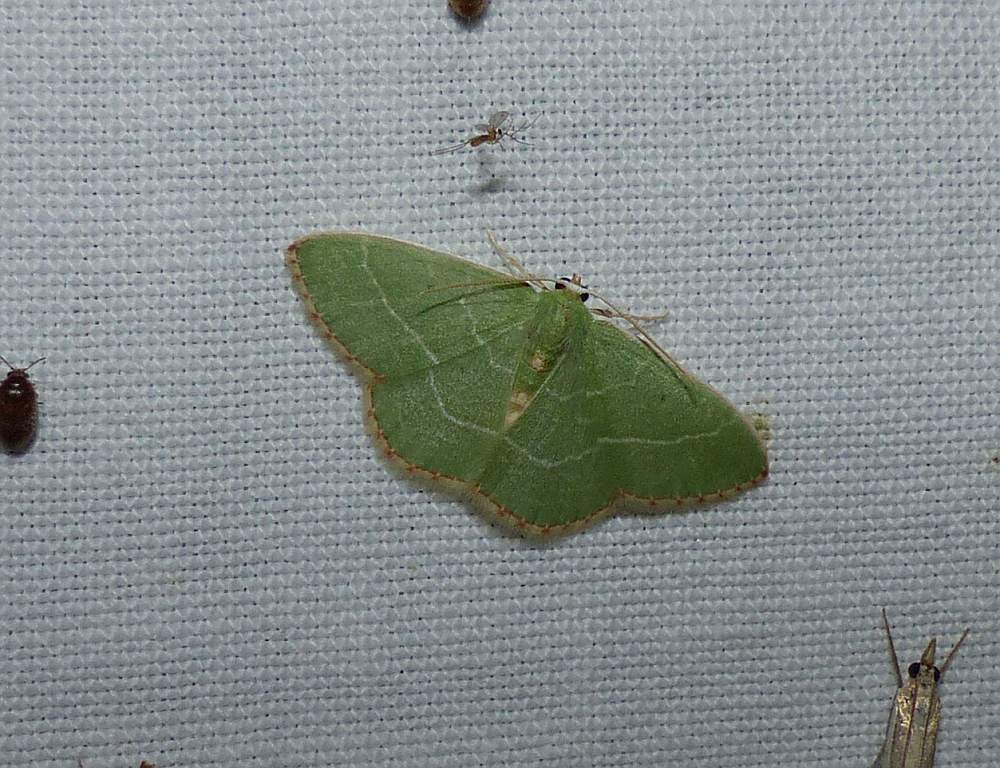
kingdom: Animalia
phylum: Arthropoda
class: Insecta
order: Lepidoptera
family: Geometridae
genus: Nemoria
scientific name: Nemoria bistriaria
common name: Red-fringed emerald
